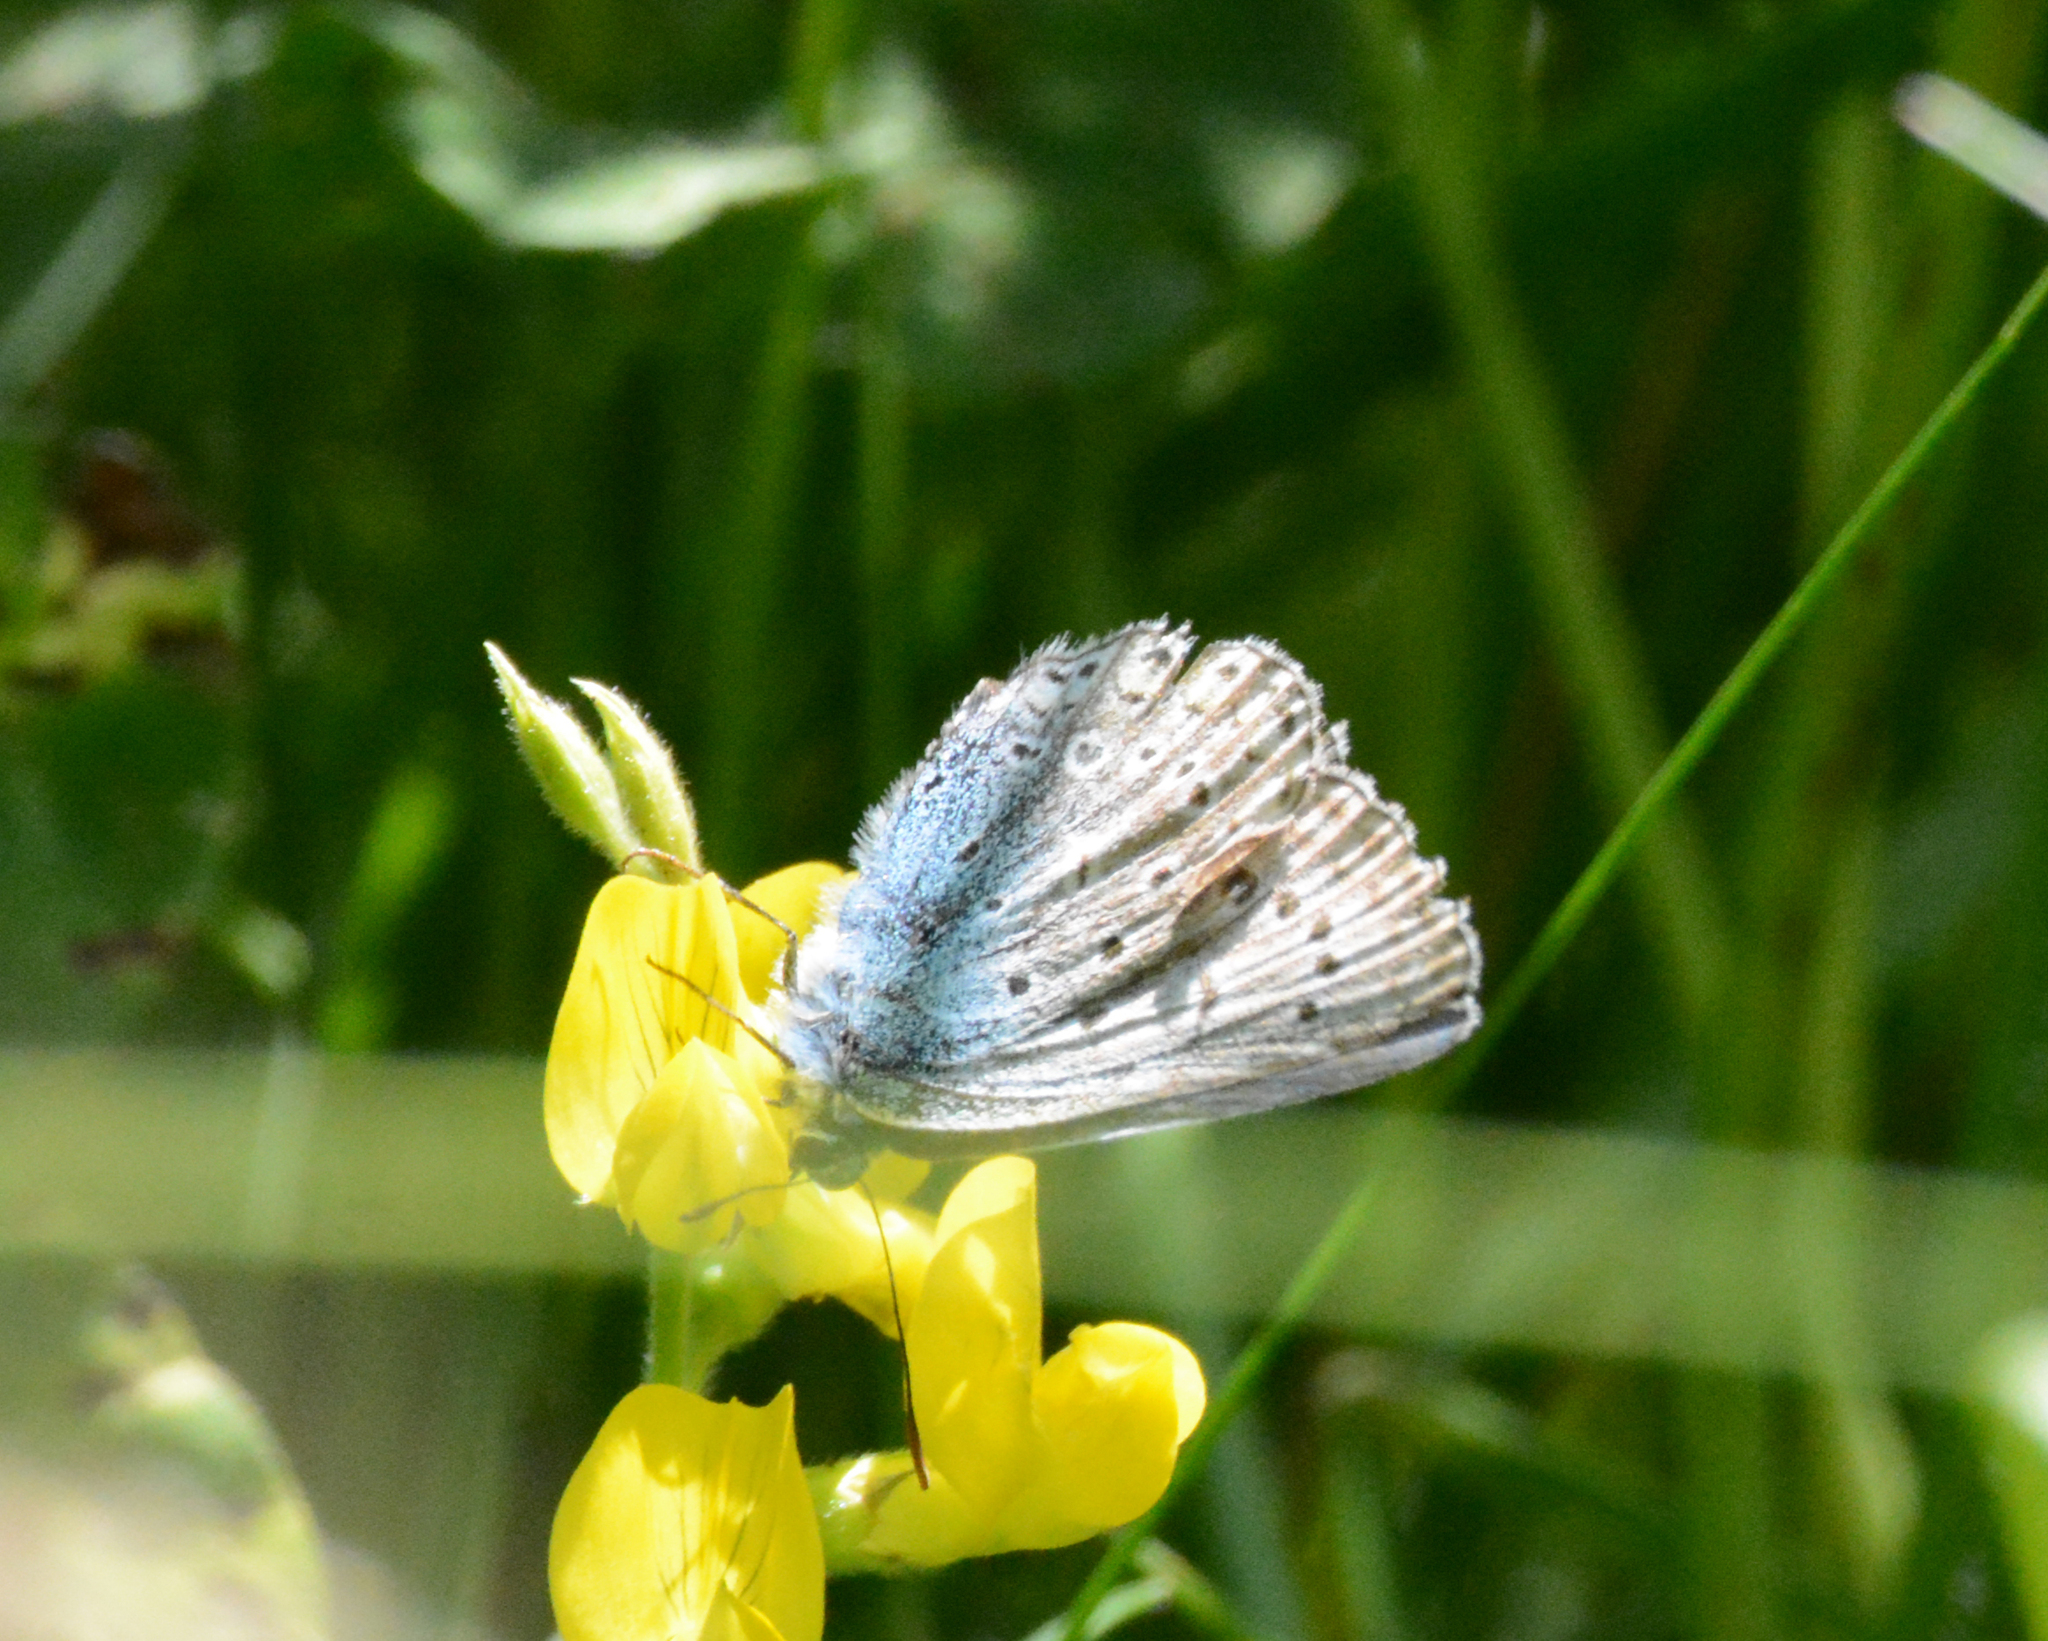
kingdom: Animalia
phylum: Arthropoda
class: Insecta
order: Lepidoptera
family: Lycaenidae
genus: Polyommatus
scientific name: Polyommatus icarus
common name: Common blue
